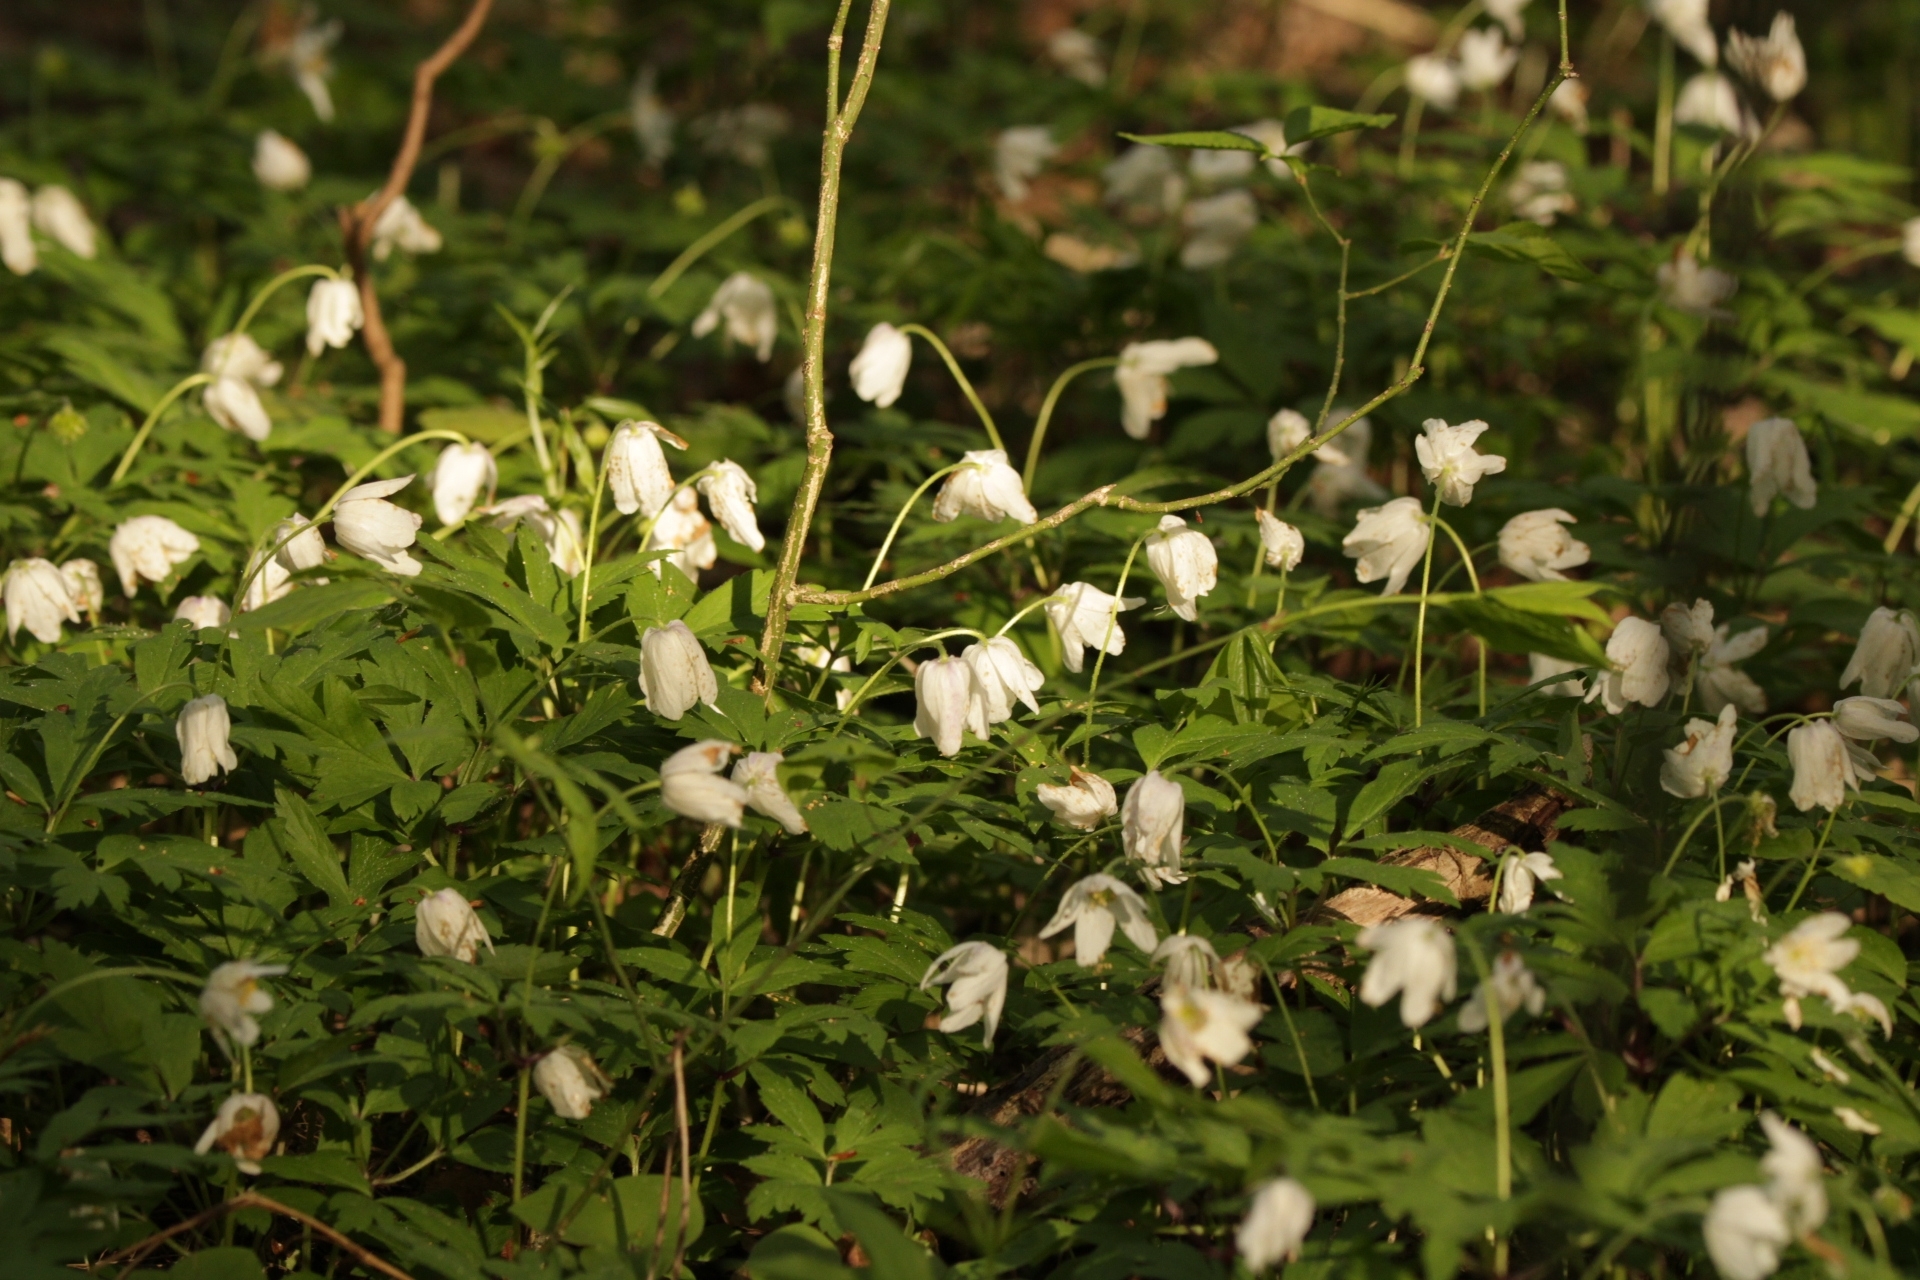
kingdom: Plantae
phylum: Tracheophyta
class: Magnoliopsida
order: Ranunculales
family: Ranunculaceae
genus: Anemone
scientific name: Anemone nemorosa
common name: Wood anemone
